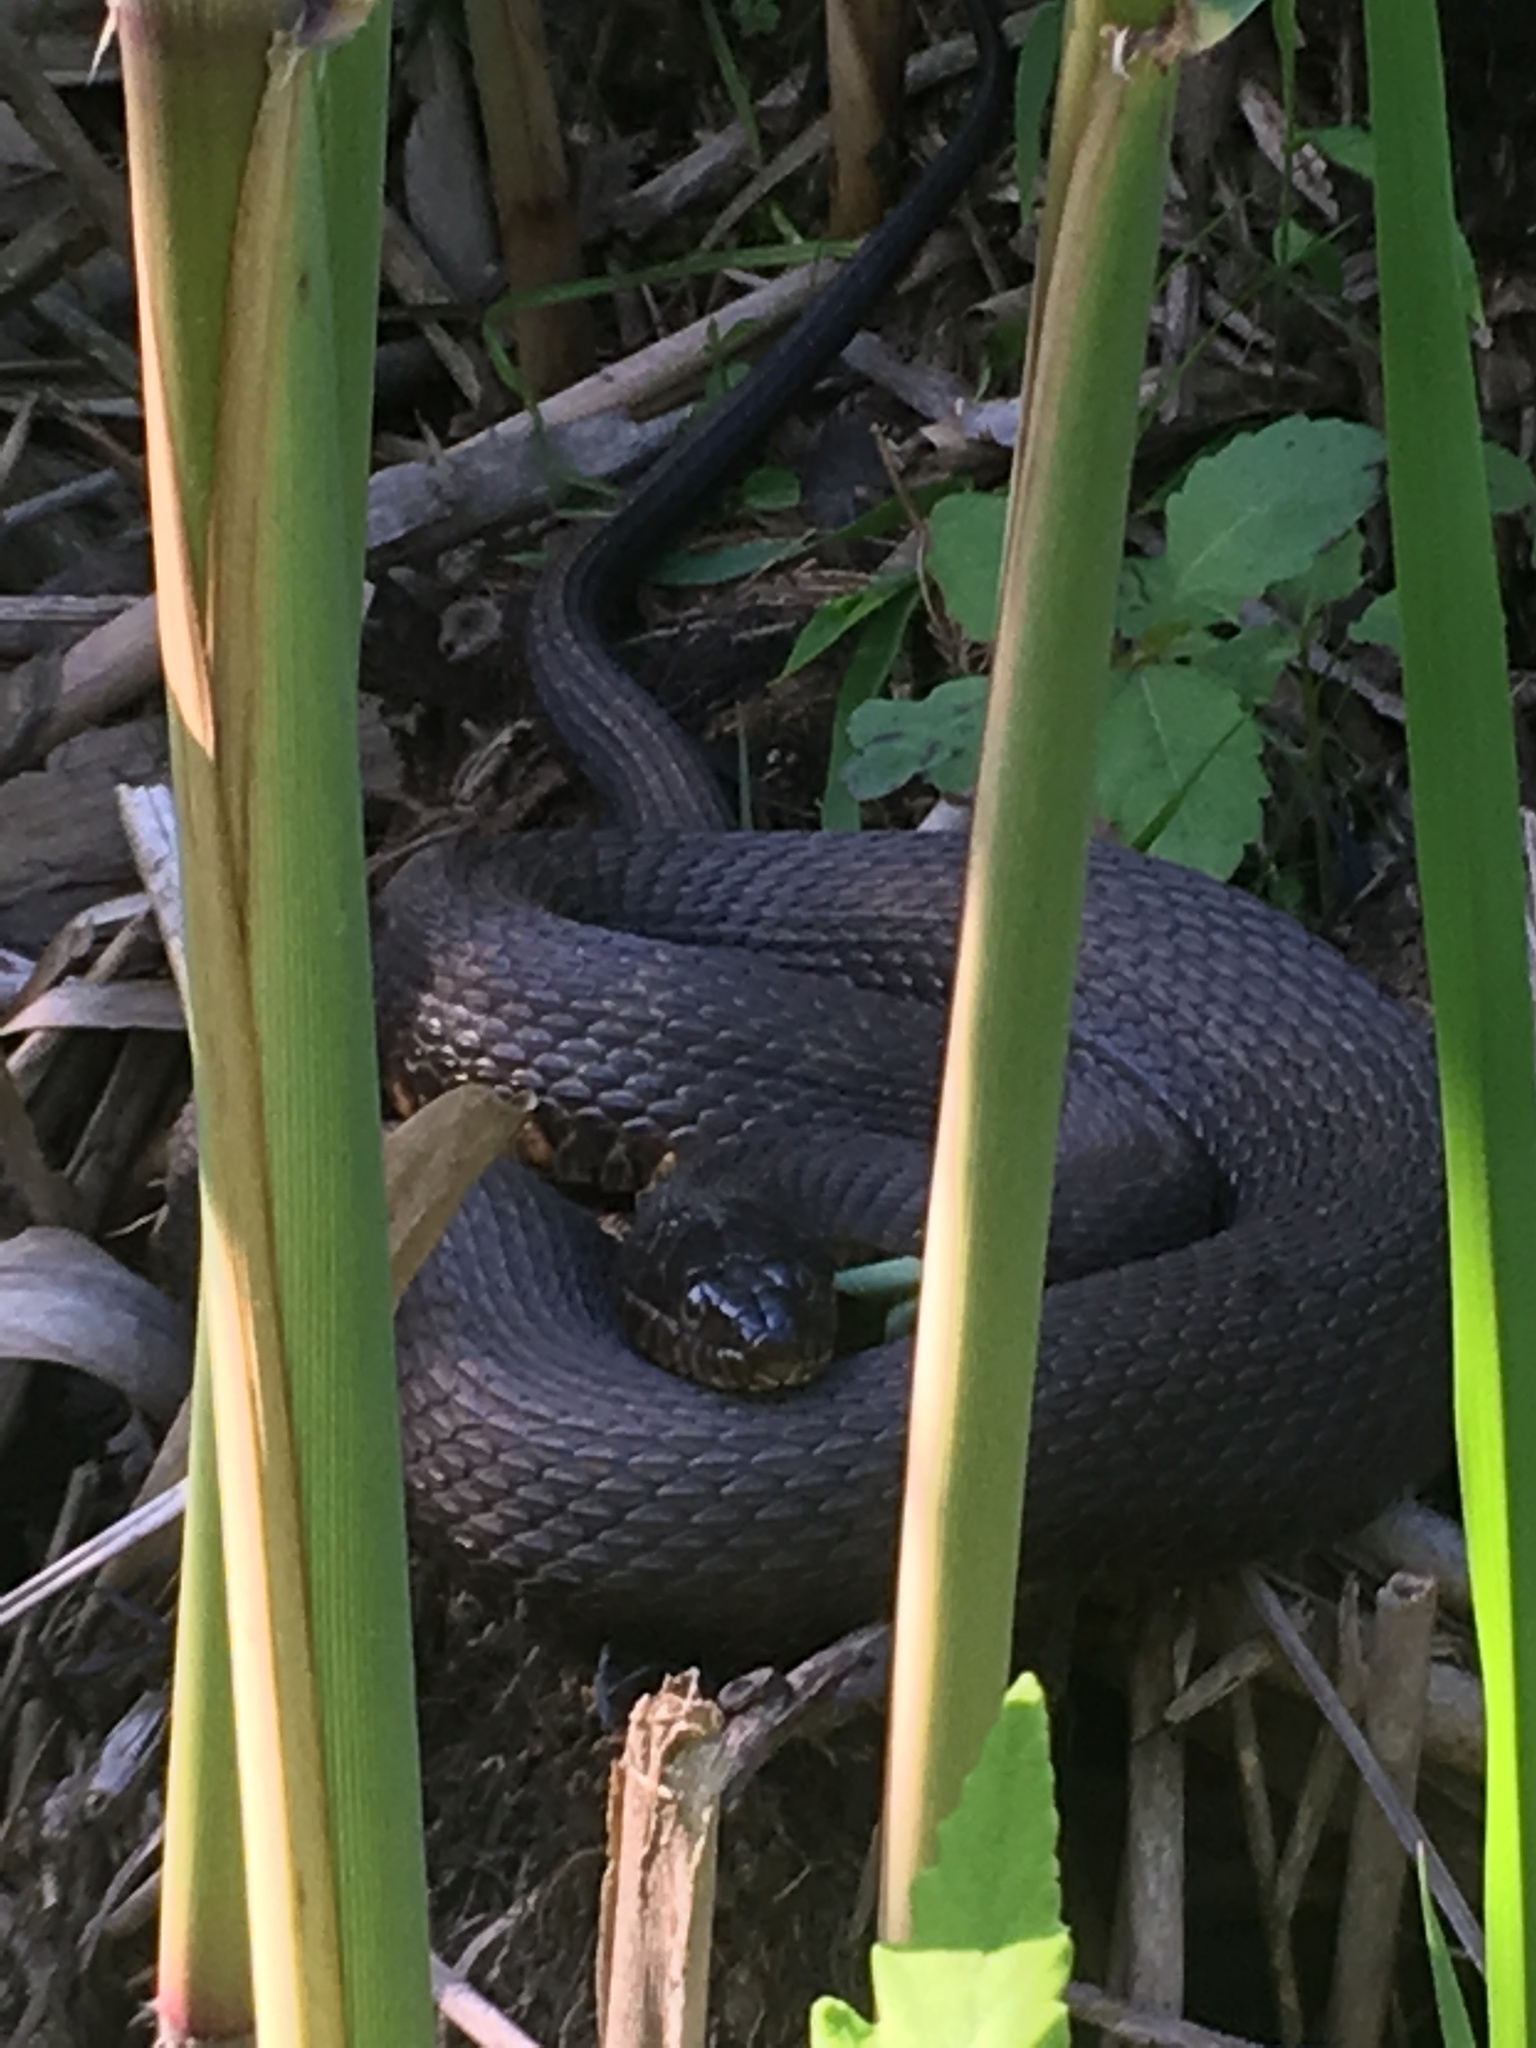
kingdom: Animalia
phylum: Chordata
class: Squamata
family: Colubridae
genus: Nerodia
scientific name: Nerodia sipedon
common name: Northern water snake
